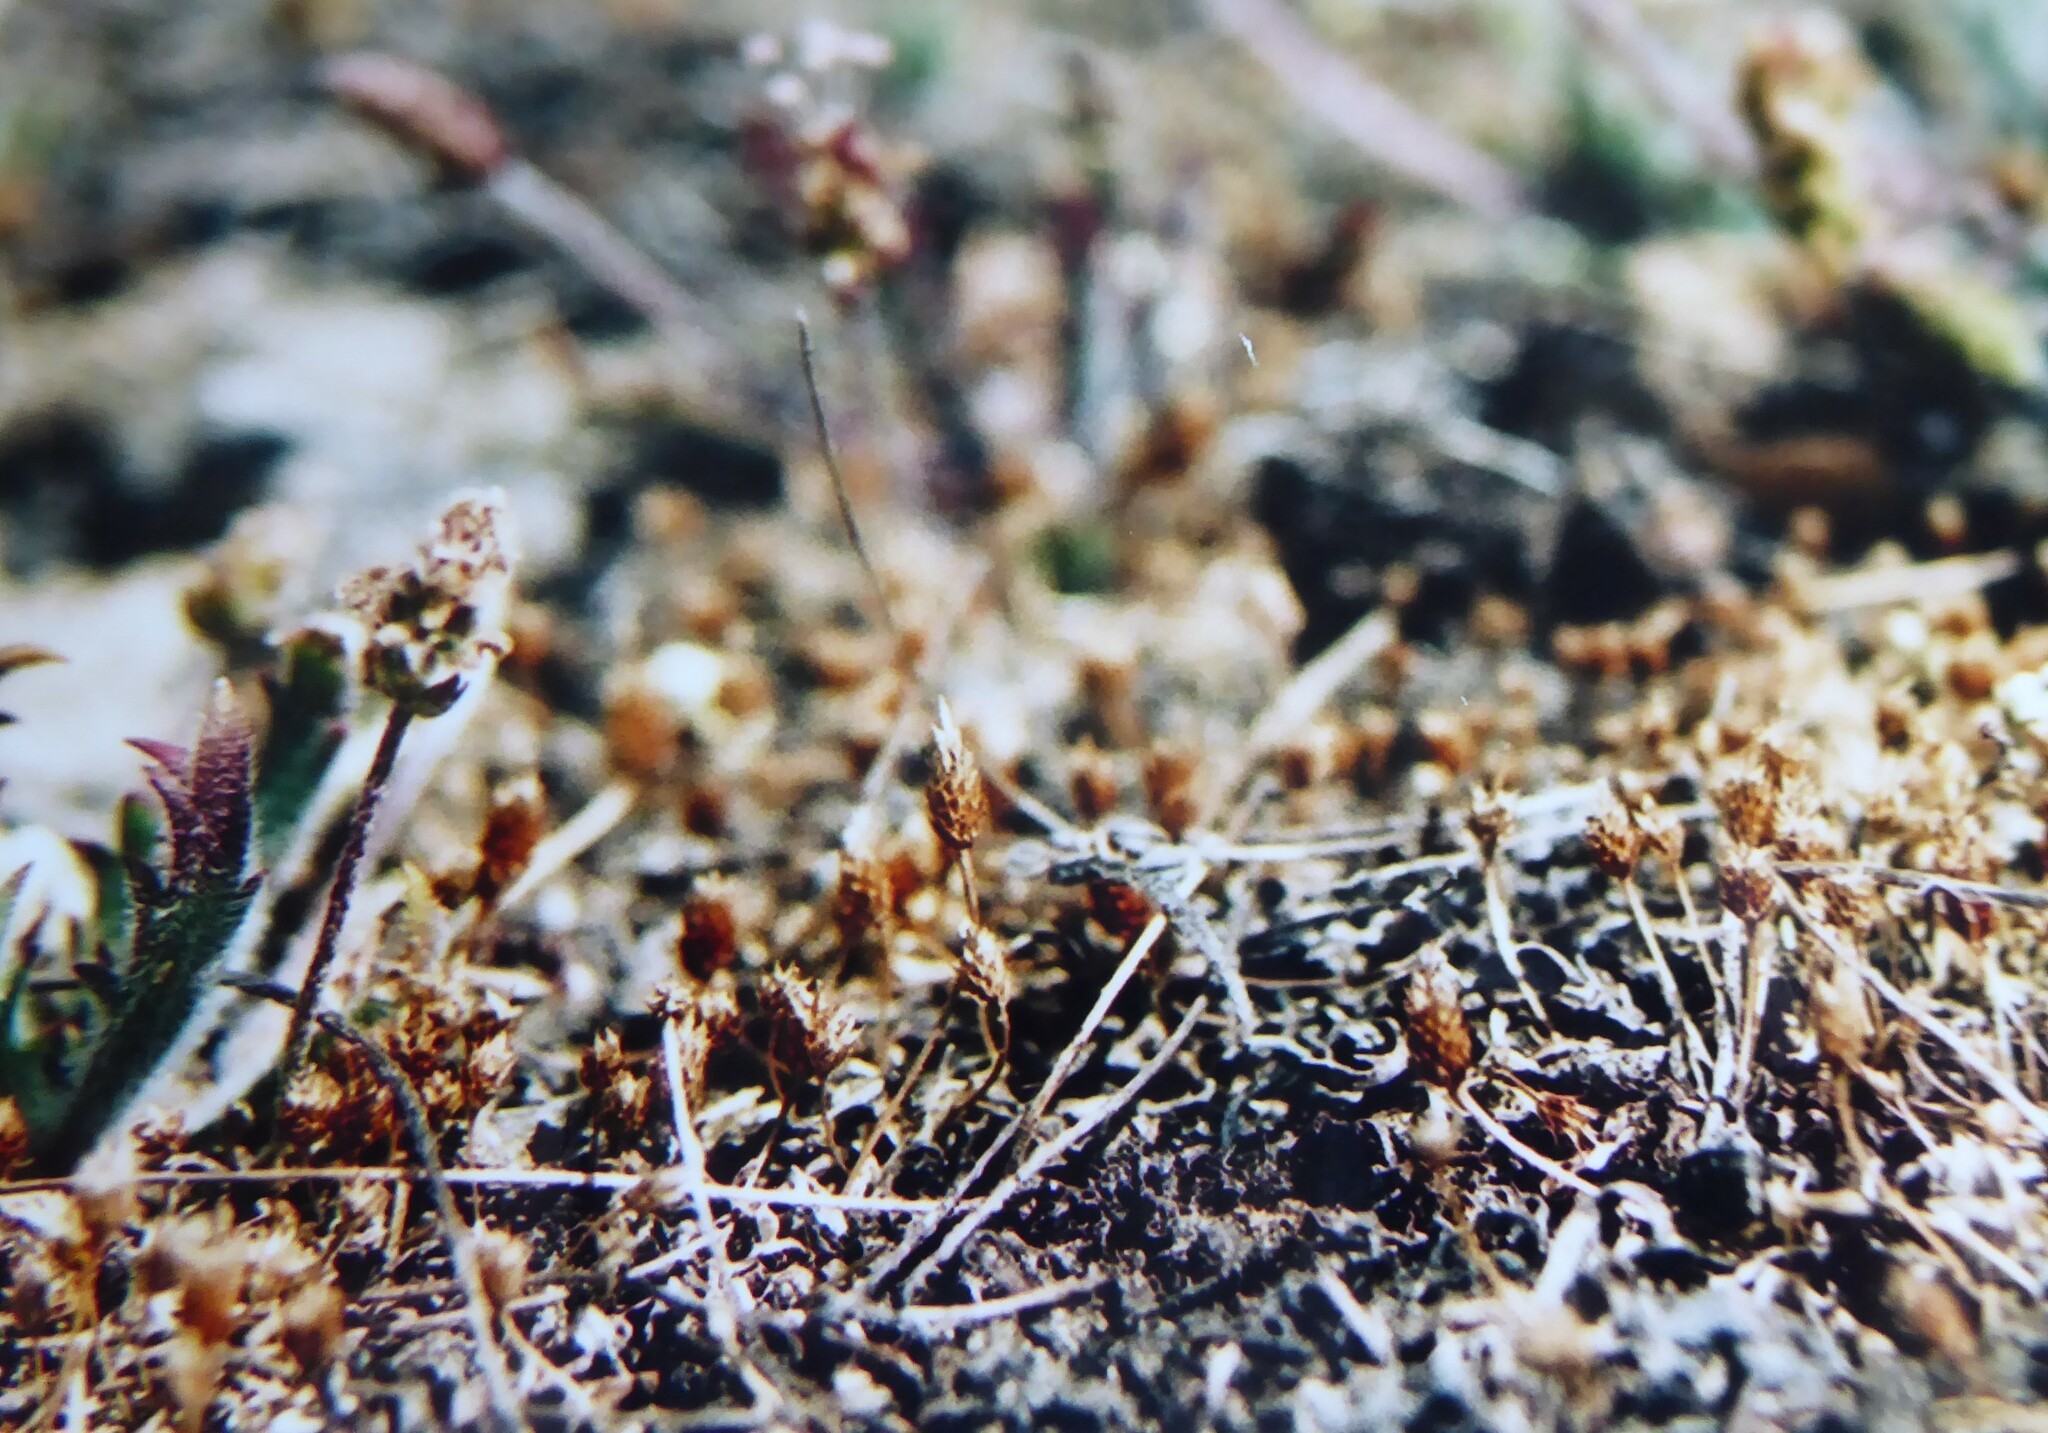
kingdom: Plantae
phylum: Tracheophyta
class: Magnoliopsida
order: Ranunculales
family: Ranunculaceae
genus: Myosurus
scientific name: Myosurus minimus
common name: Mousetail
